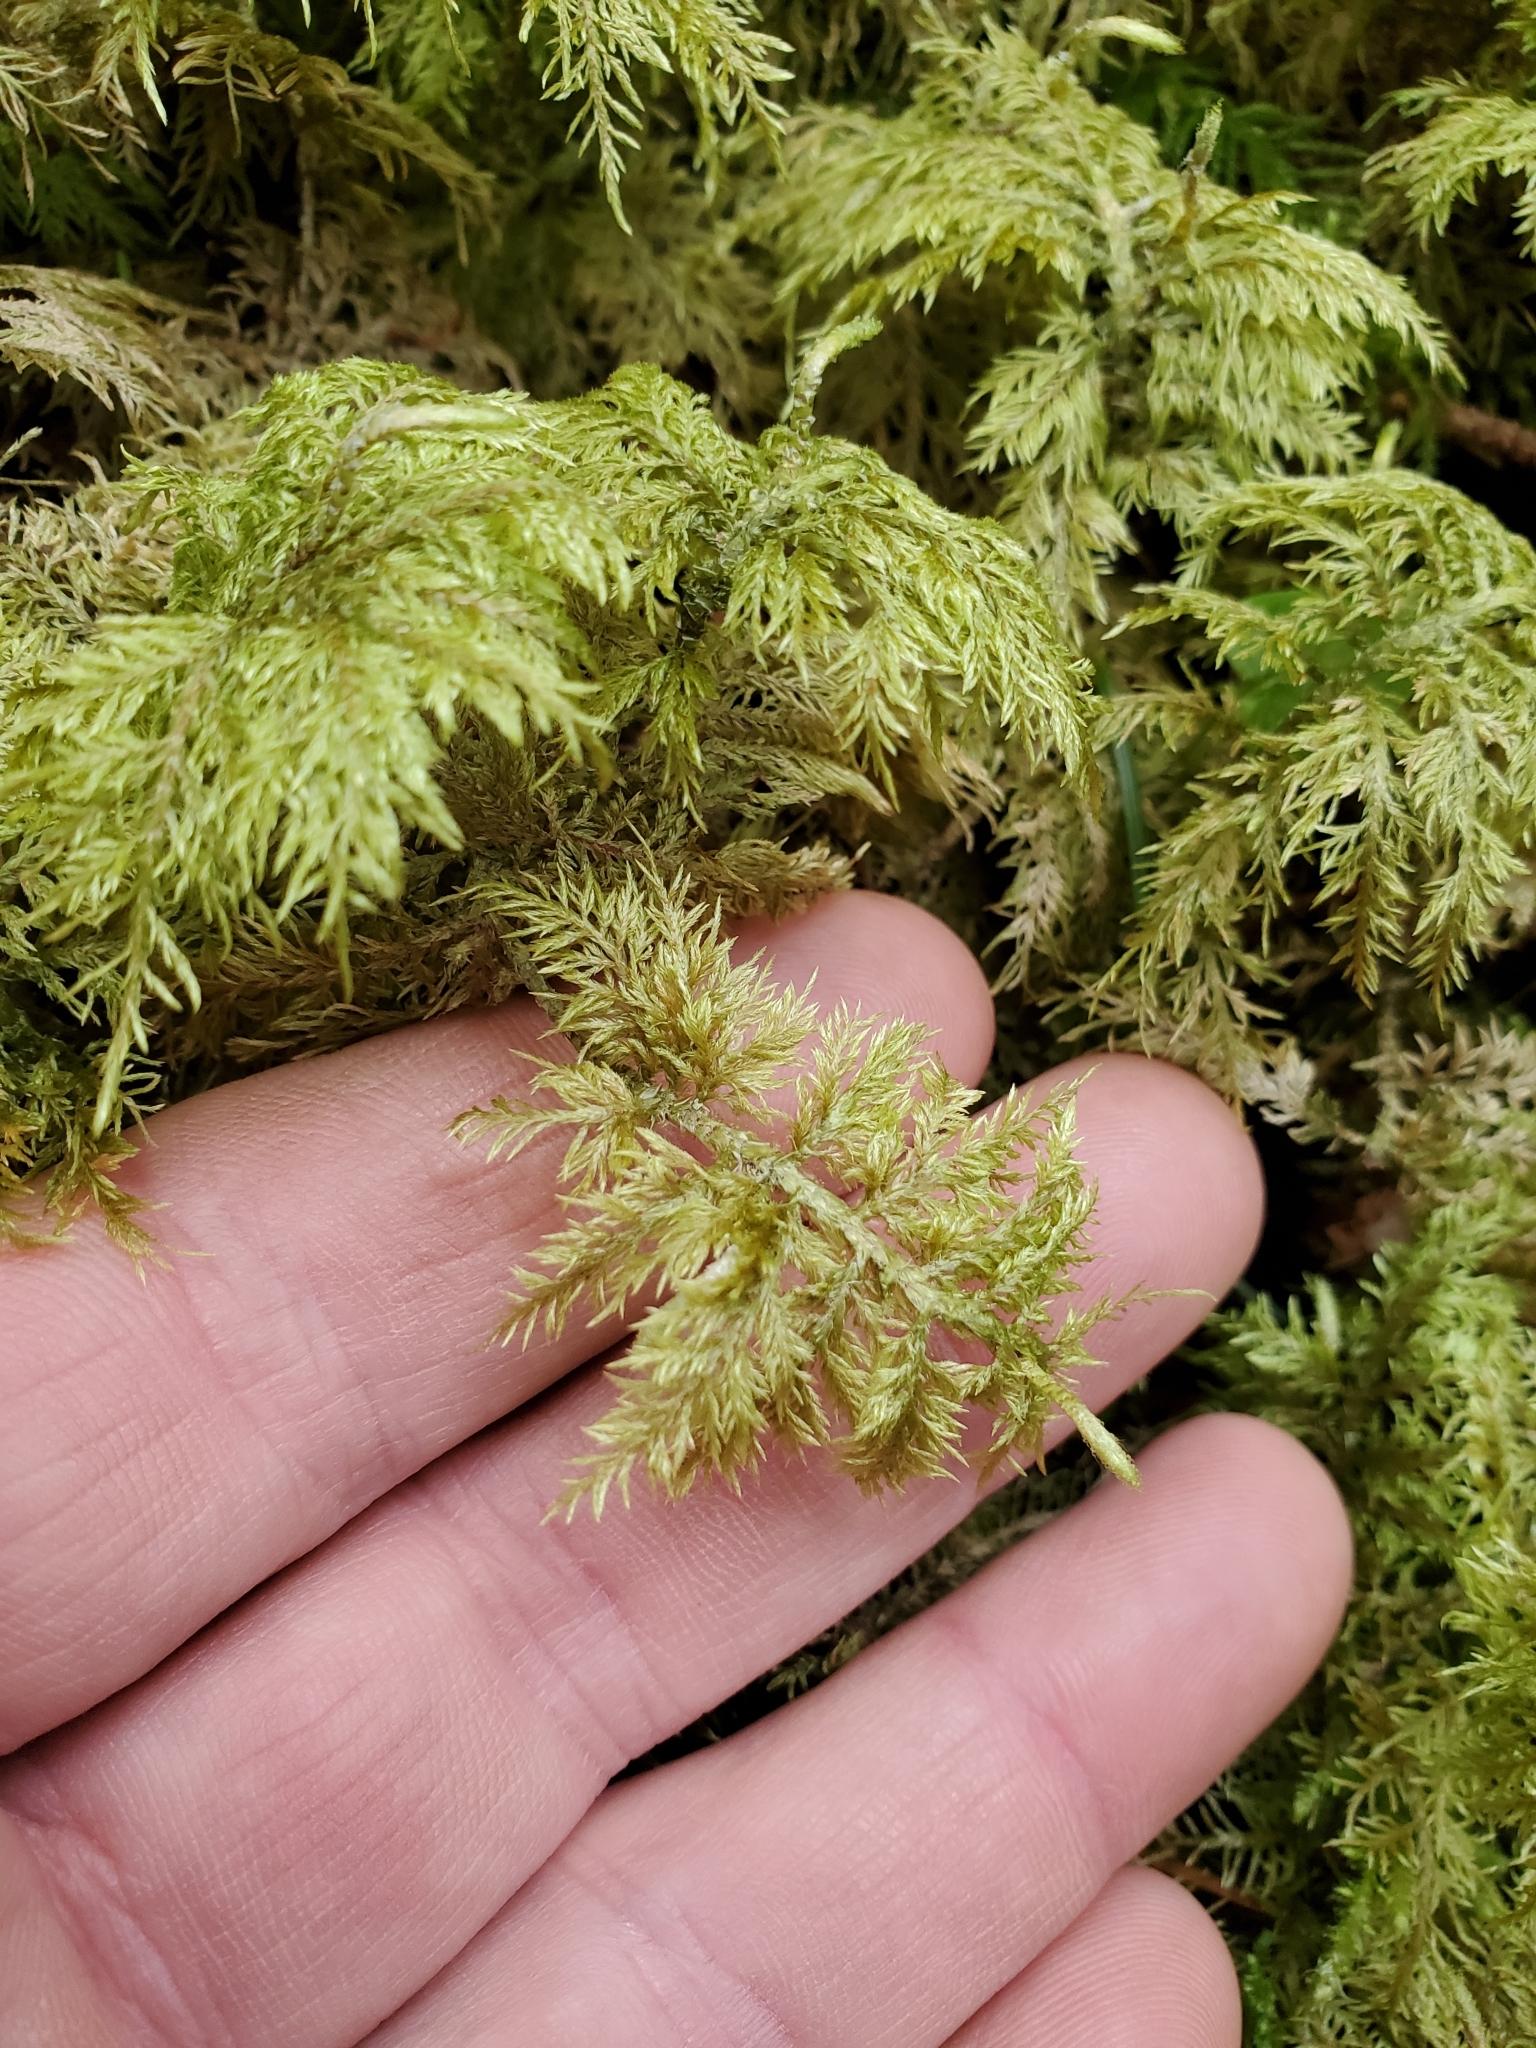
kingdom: Plantae
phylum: Bryophyta
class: Bryopsida
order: Hypnales
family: Hylocomiaceae
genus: Hylocomium
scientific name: Hylocomium splendens
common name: Stairstep moss
